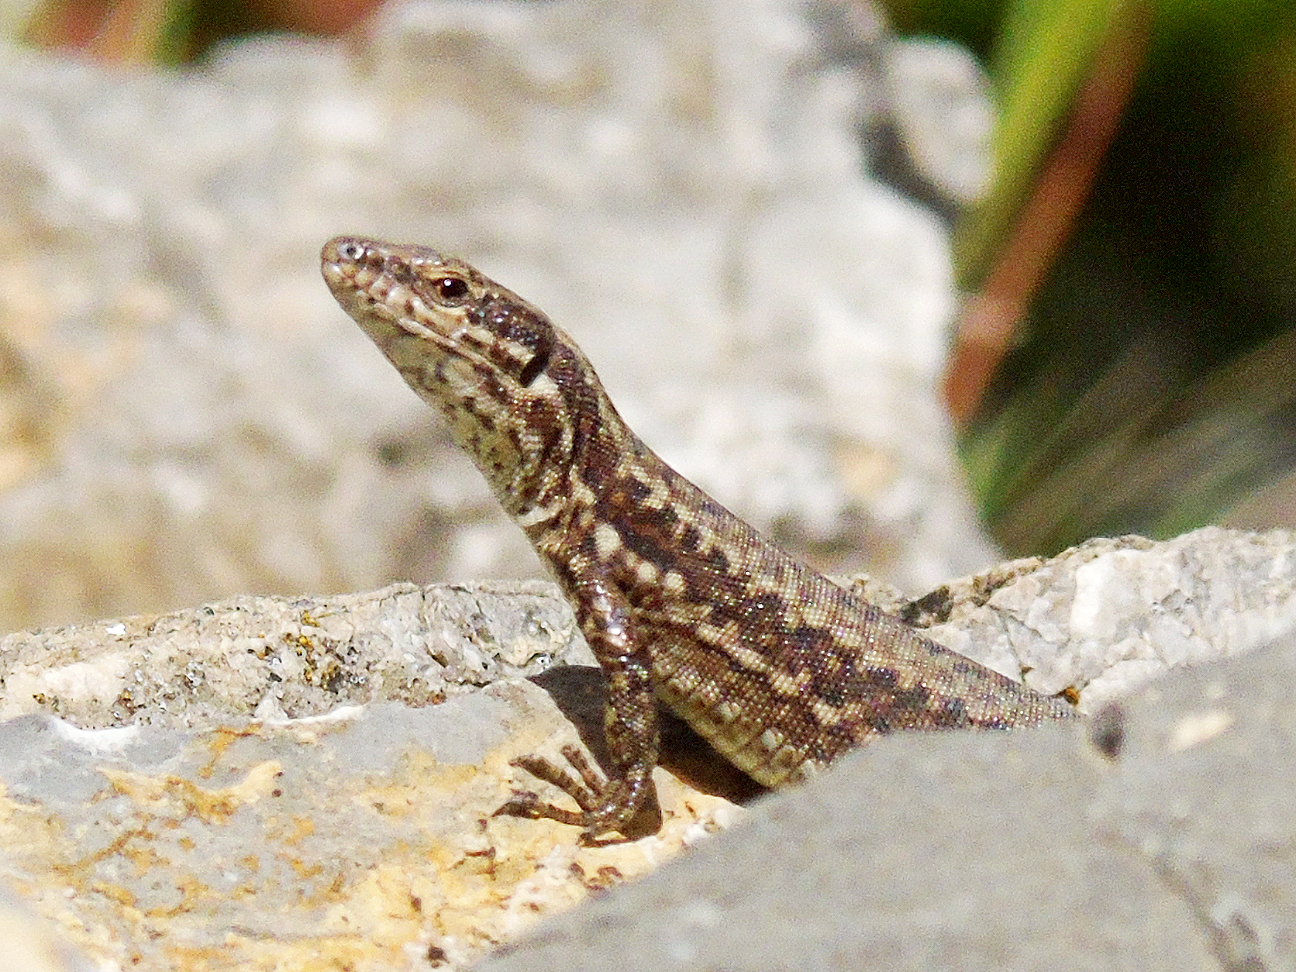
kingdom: Animalia
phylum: Chordata
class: Squamata
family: Lacertidae
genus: Podarcis
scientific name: Podarcis muralis
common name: Common wall lizard
